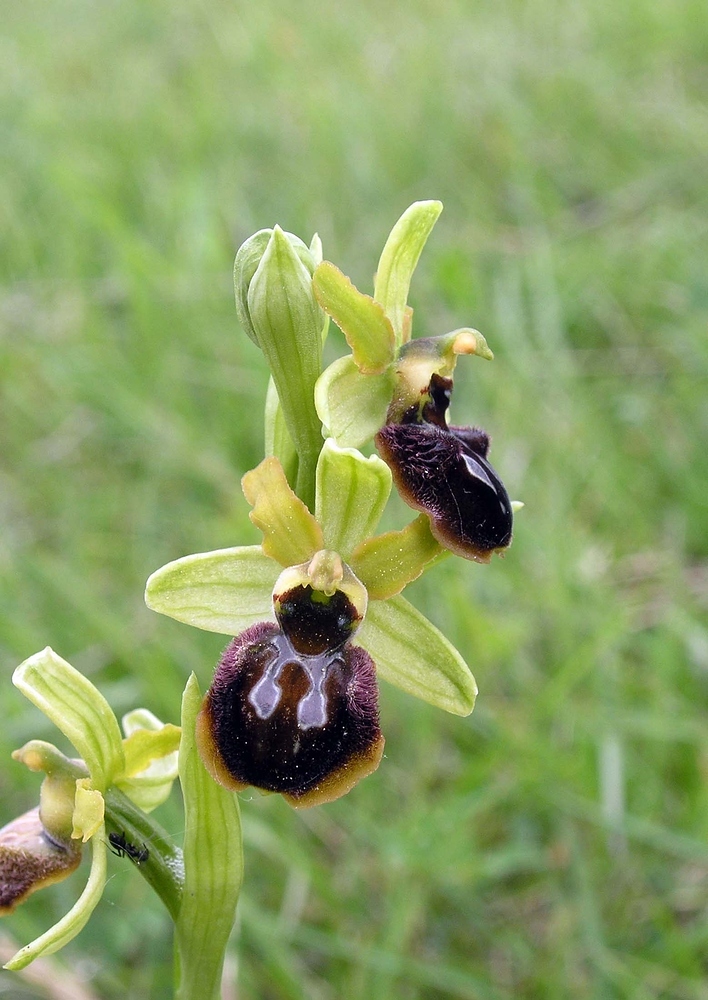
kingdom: Plantae
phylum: Tracheophyta
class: Liliopsida
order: Asparagales
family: Orchidaceae
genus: Ophrys
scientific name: Ophrys arachnitiformis
